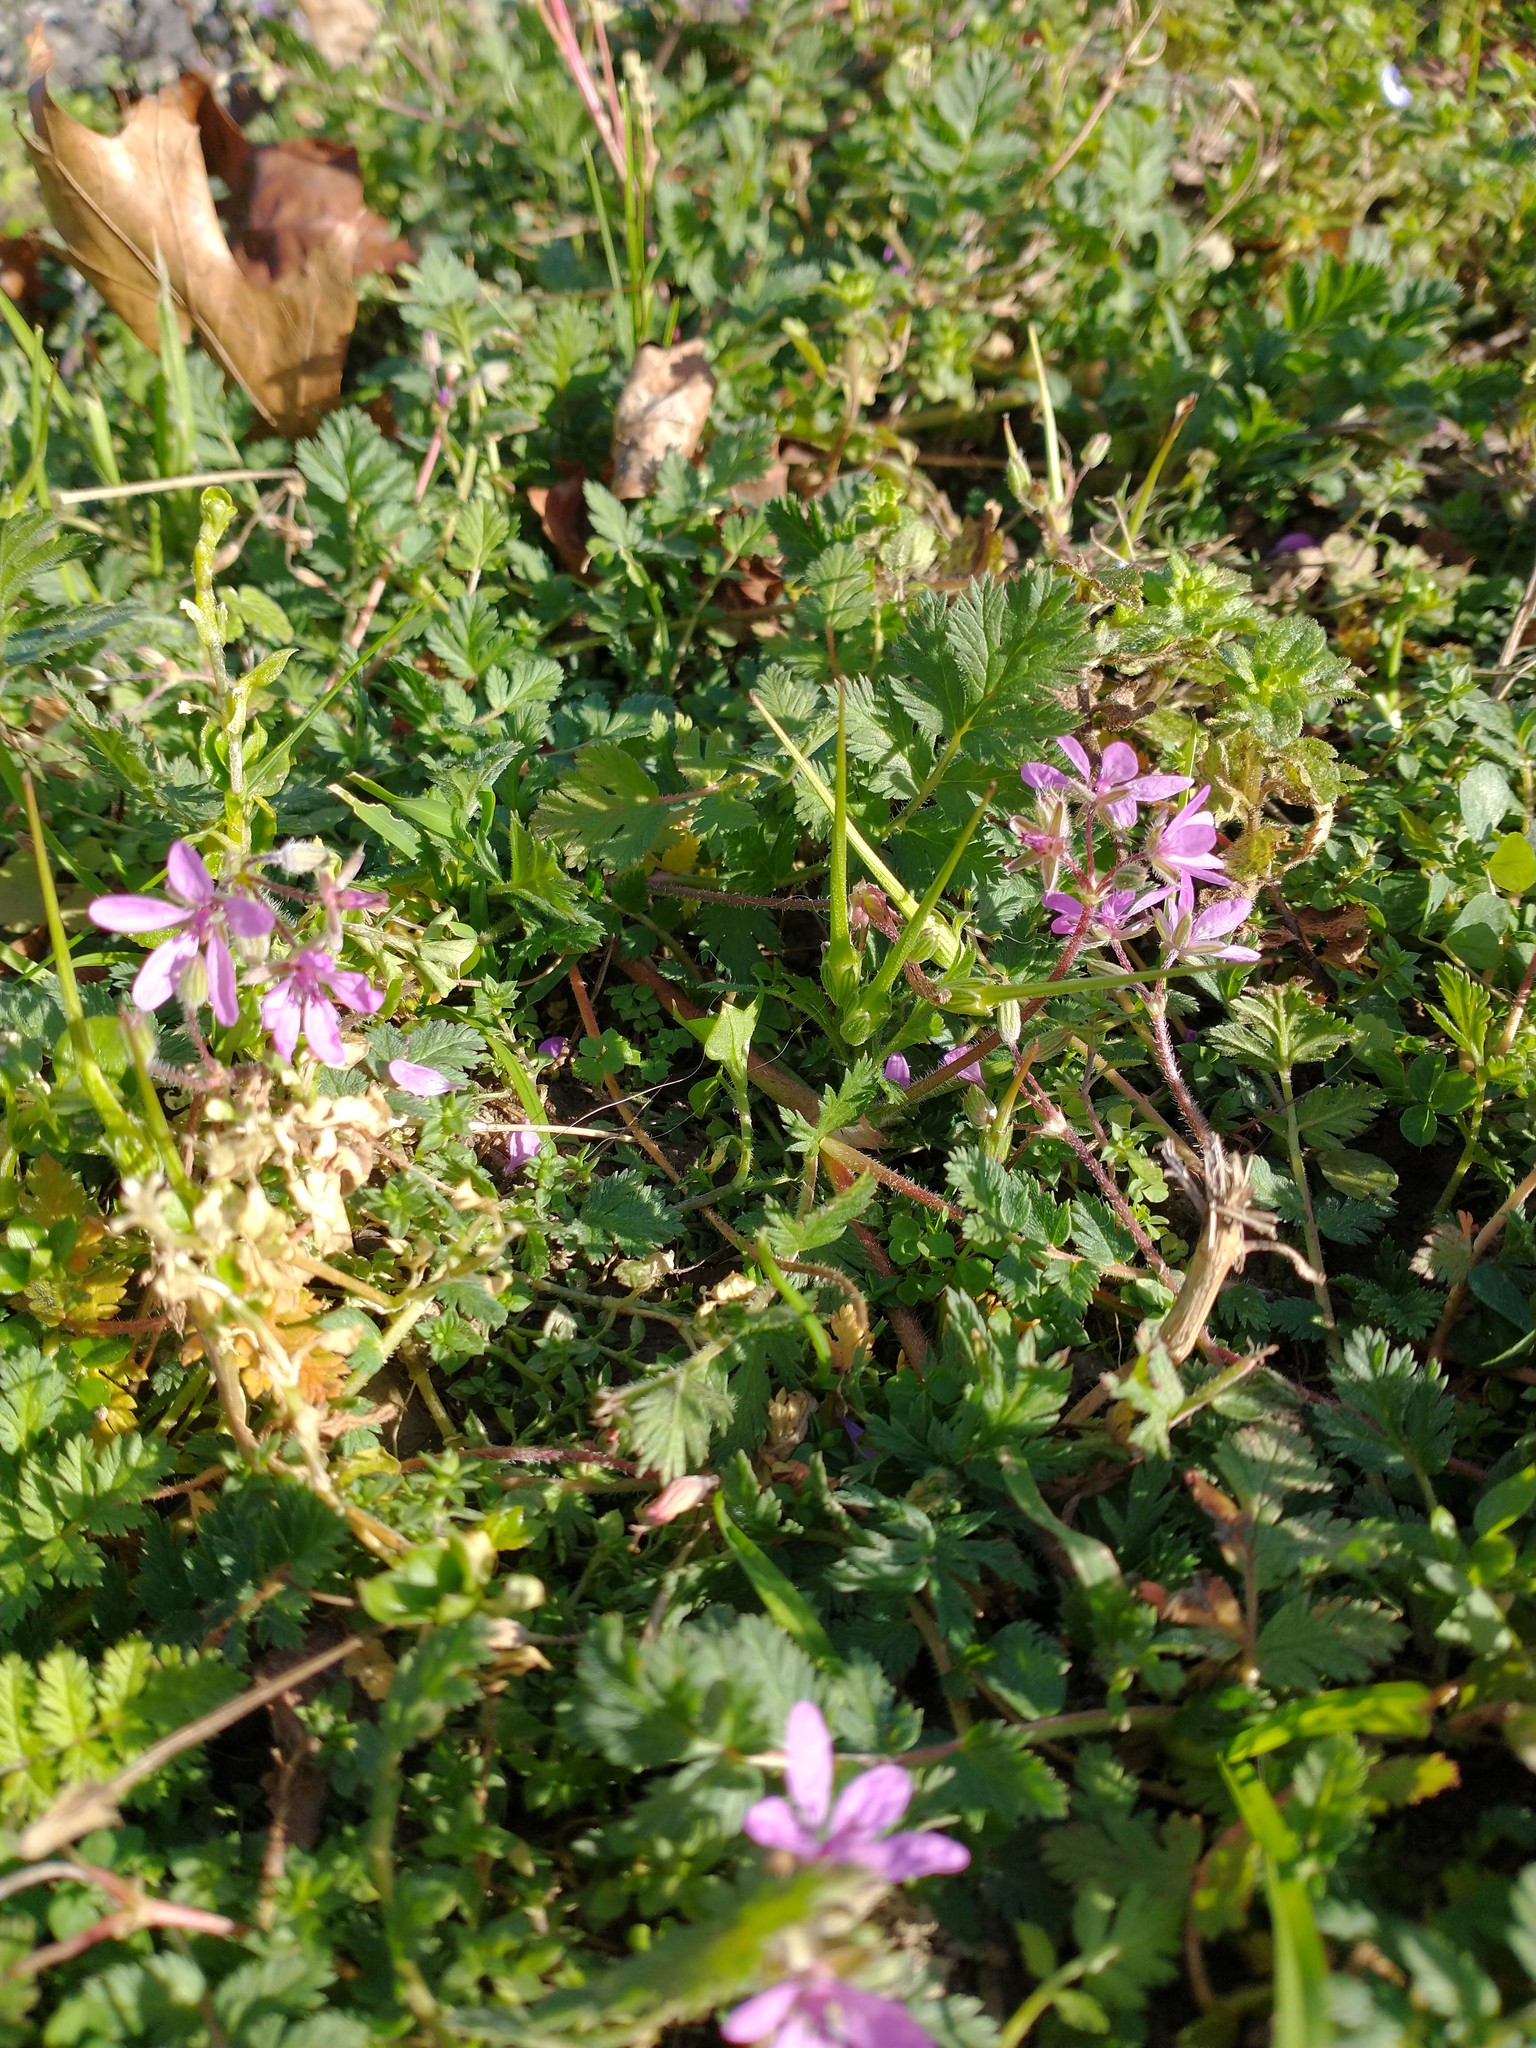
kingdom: Plantae
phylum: Tracheophyta
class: Magnoliopsida
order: Geraniales
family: Geraniaceae
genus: Erodium
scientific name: Erodium cicutarium
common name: Common stork's-bill
